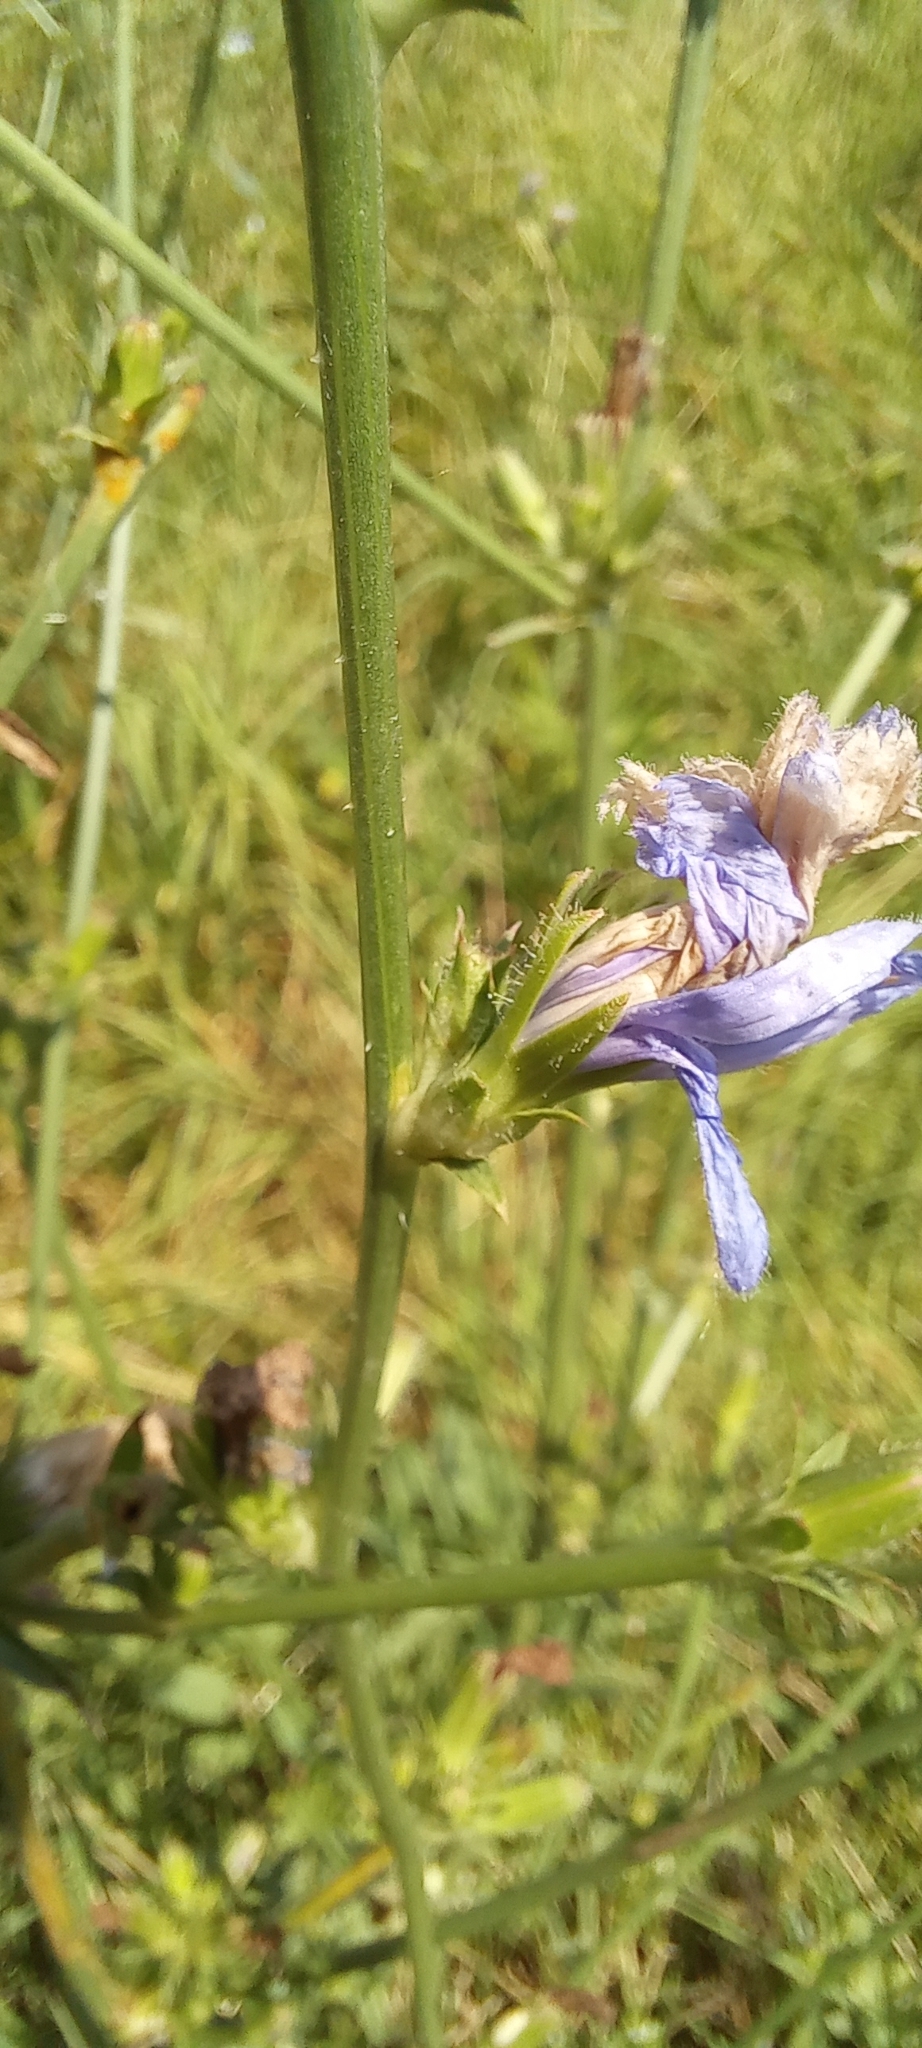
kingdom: Plantae
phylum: Tracheophyta
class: Magnoliopsida
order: Asterales
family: Asteraceae
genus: Cichorium
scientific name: Cichorium intybus
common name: Chicory
